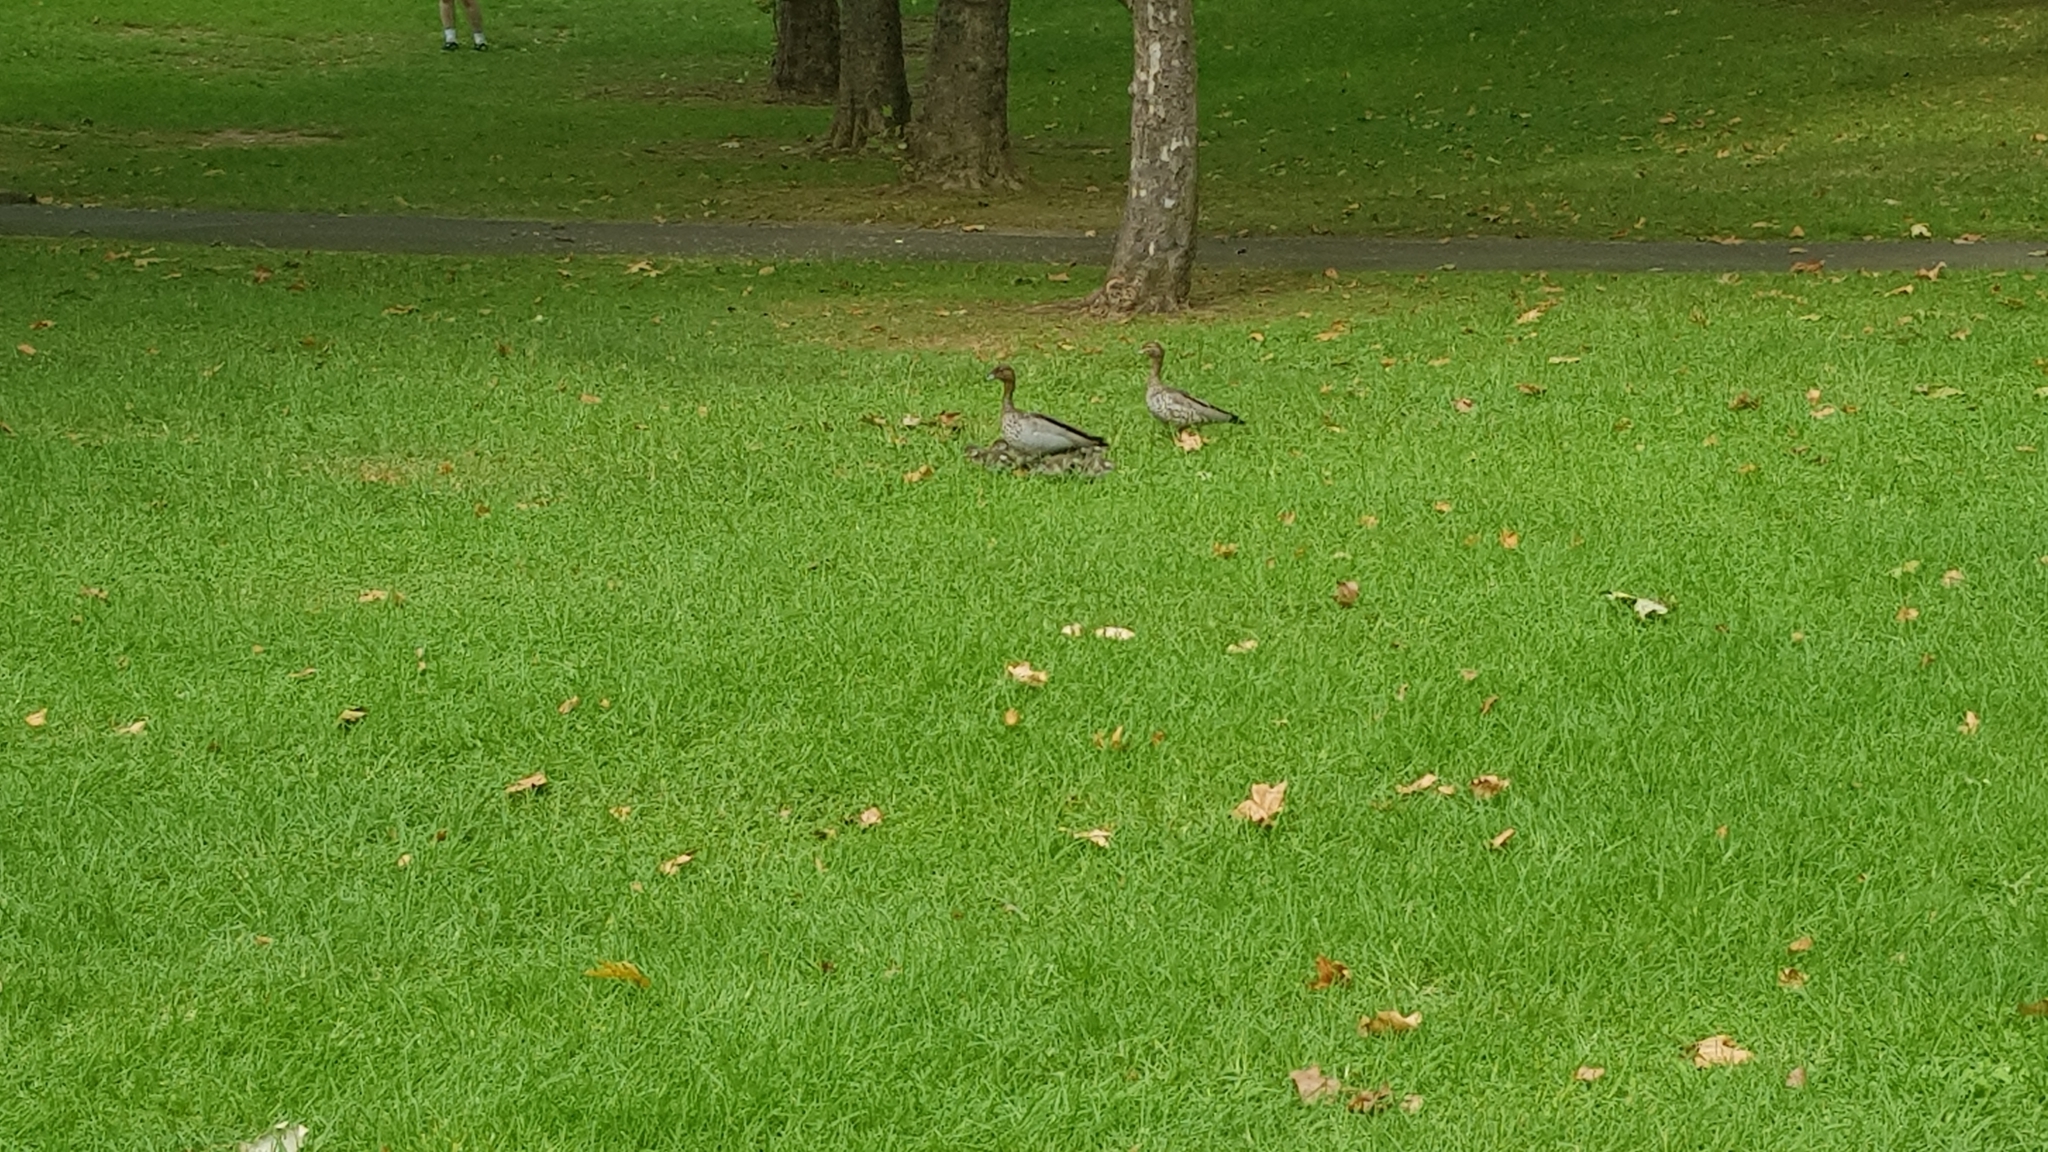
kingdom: Animalia
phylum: Chordata
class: Aves
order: Anseriformes
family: Anatidae
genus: Chenonetta
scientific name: Chenonetta jubata
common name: Maned duck
